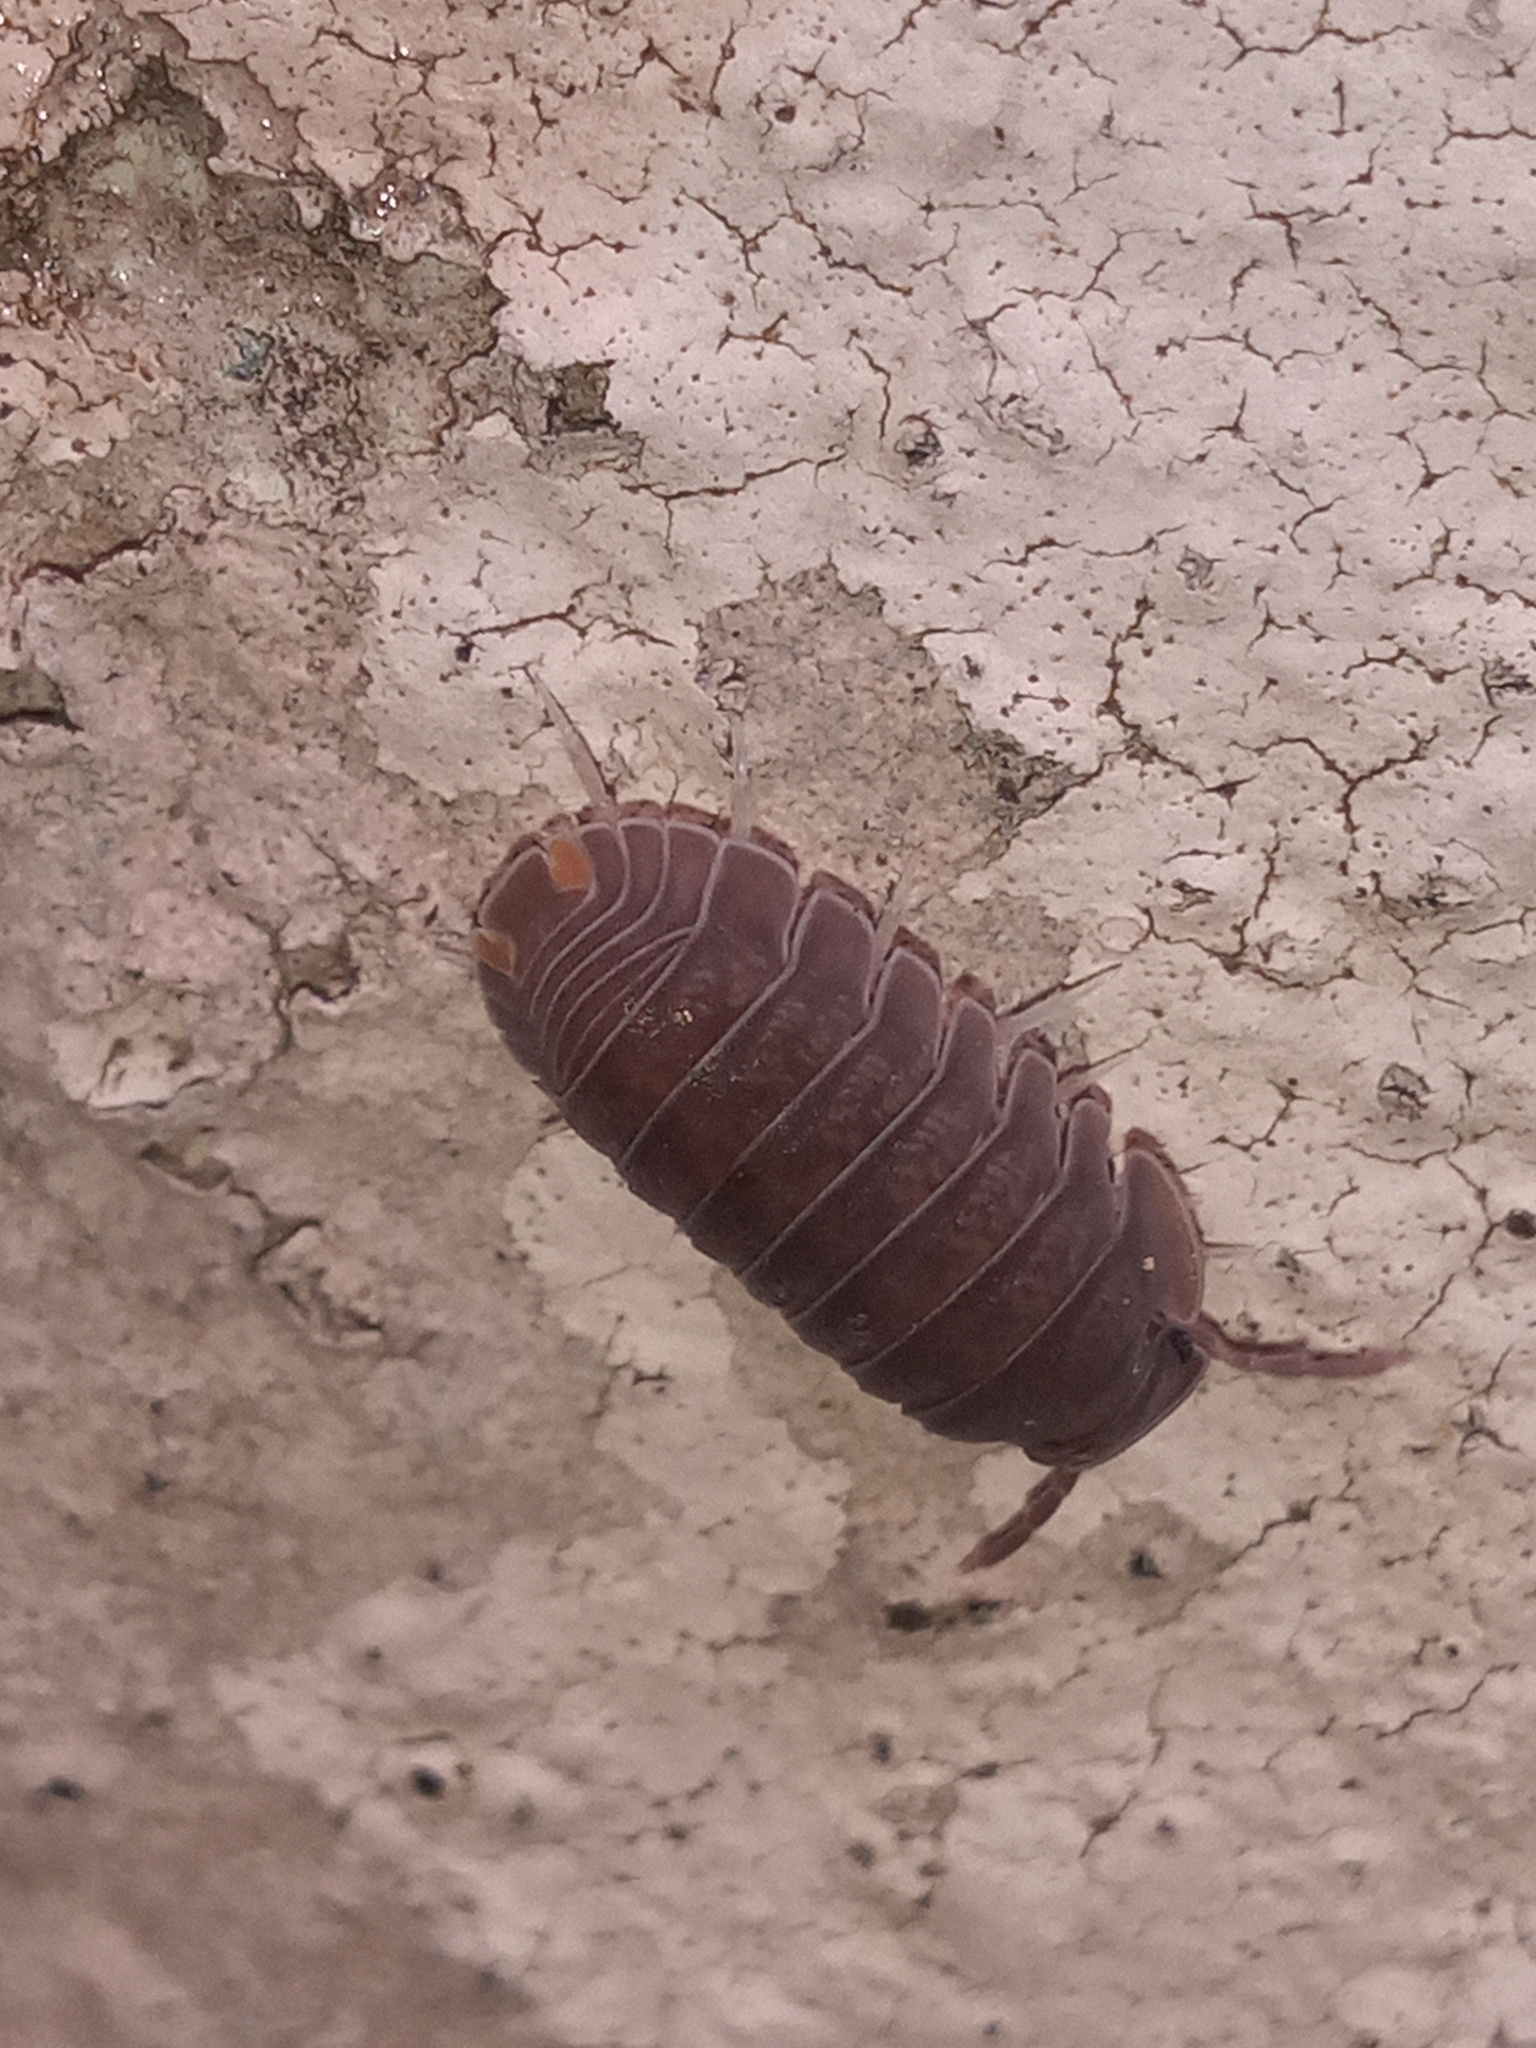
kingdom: Animalia
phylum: Arthropoda
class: Malacostraca
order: Isopoda
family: Armadillidae
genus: Cubaris
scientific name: Cubaris murina
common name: Pillbug
